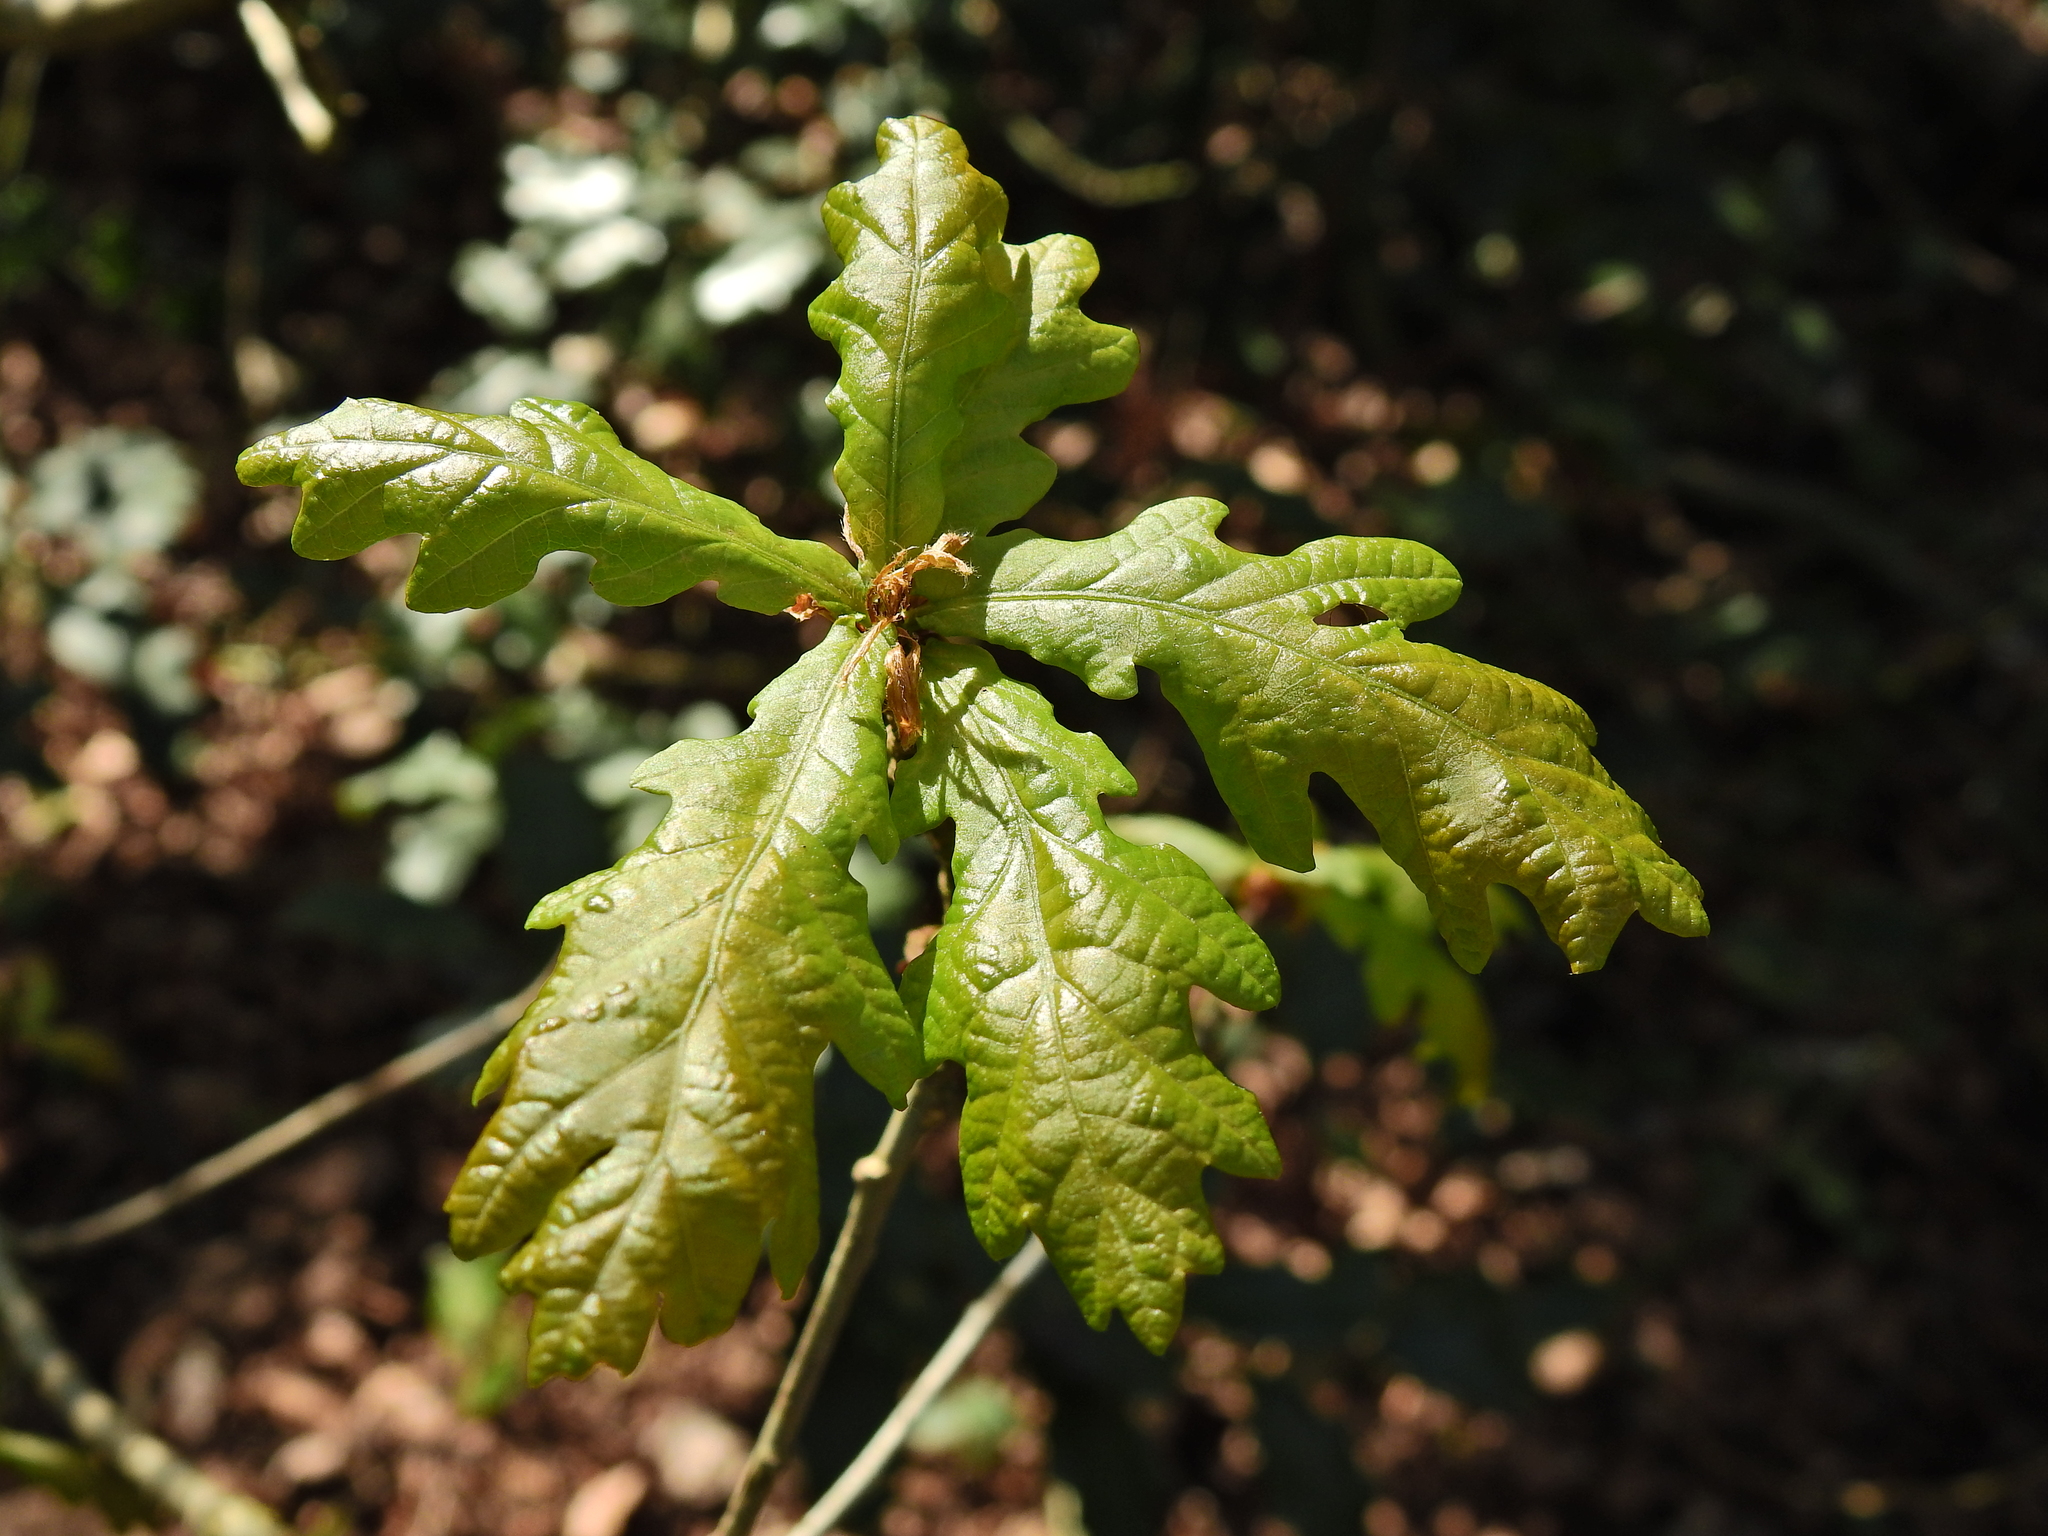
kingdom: Plantae
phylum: Tracheophyta
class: Magnoliopsida
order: Fagales
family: Fagaceae
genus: Quercus
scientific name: Quercus robur
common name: Pedunculate oak
